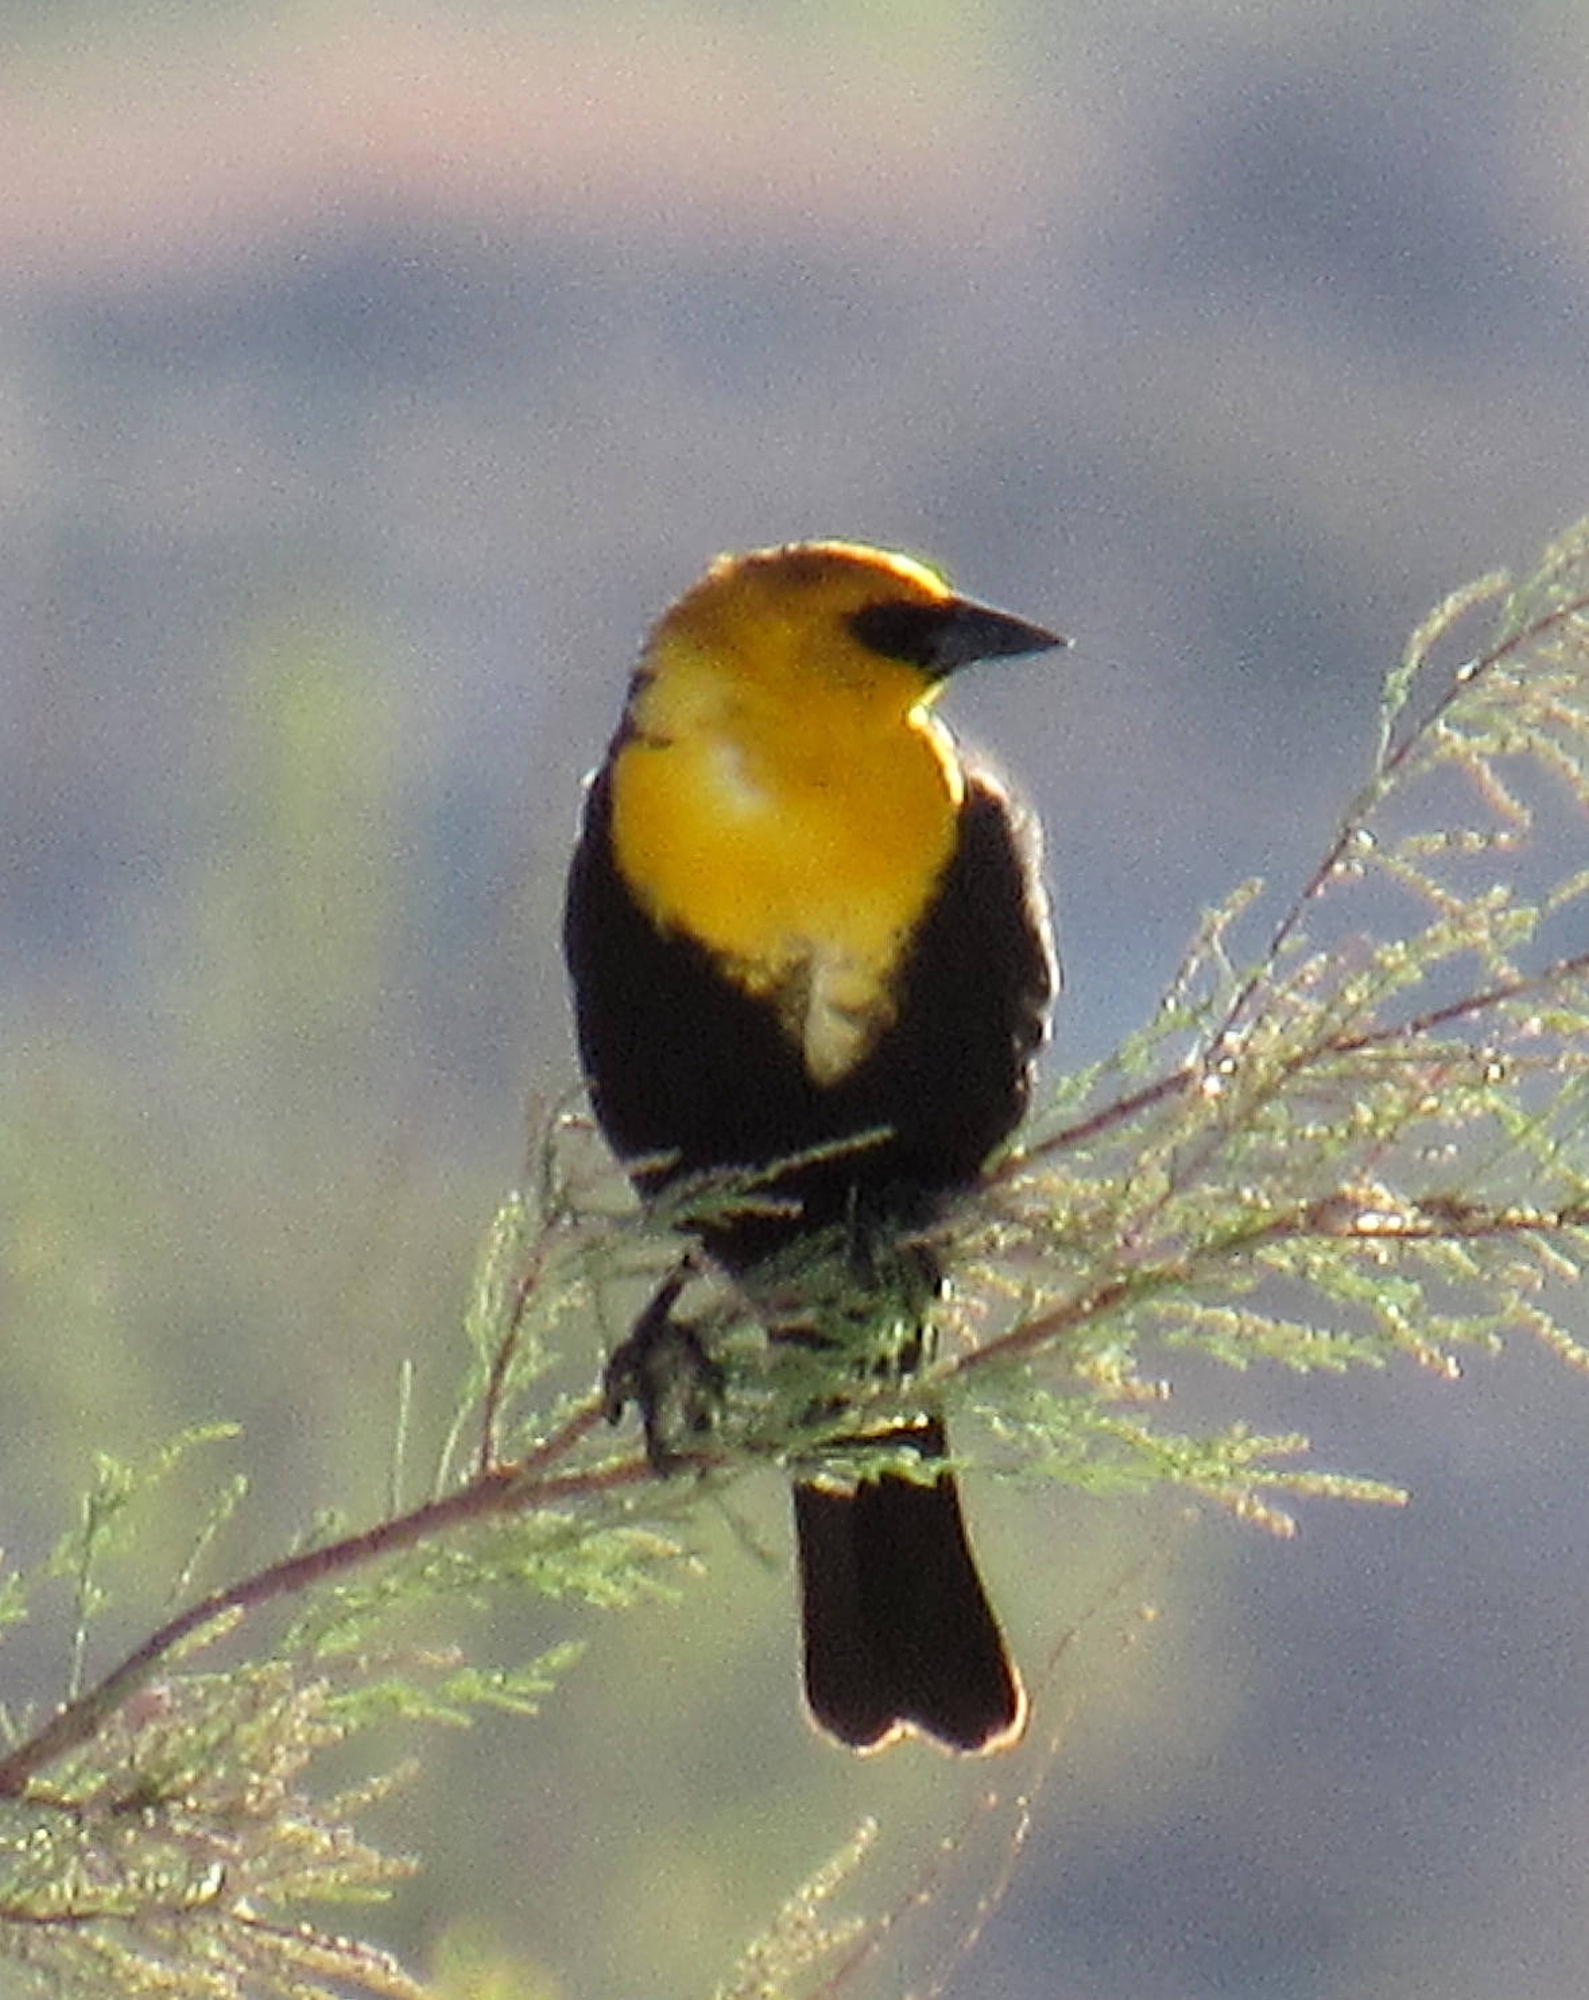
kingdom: Animalia
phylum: Chordata
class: Aves
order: Passeriformes
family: Icteridae
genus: Xanthocephalus
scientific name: Xanthocephalus xanthocephalus
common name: Yellow-headed blackbird
